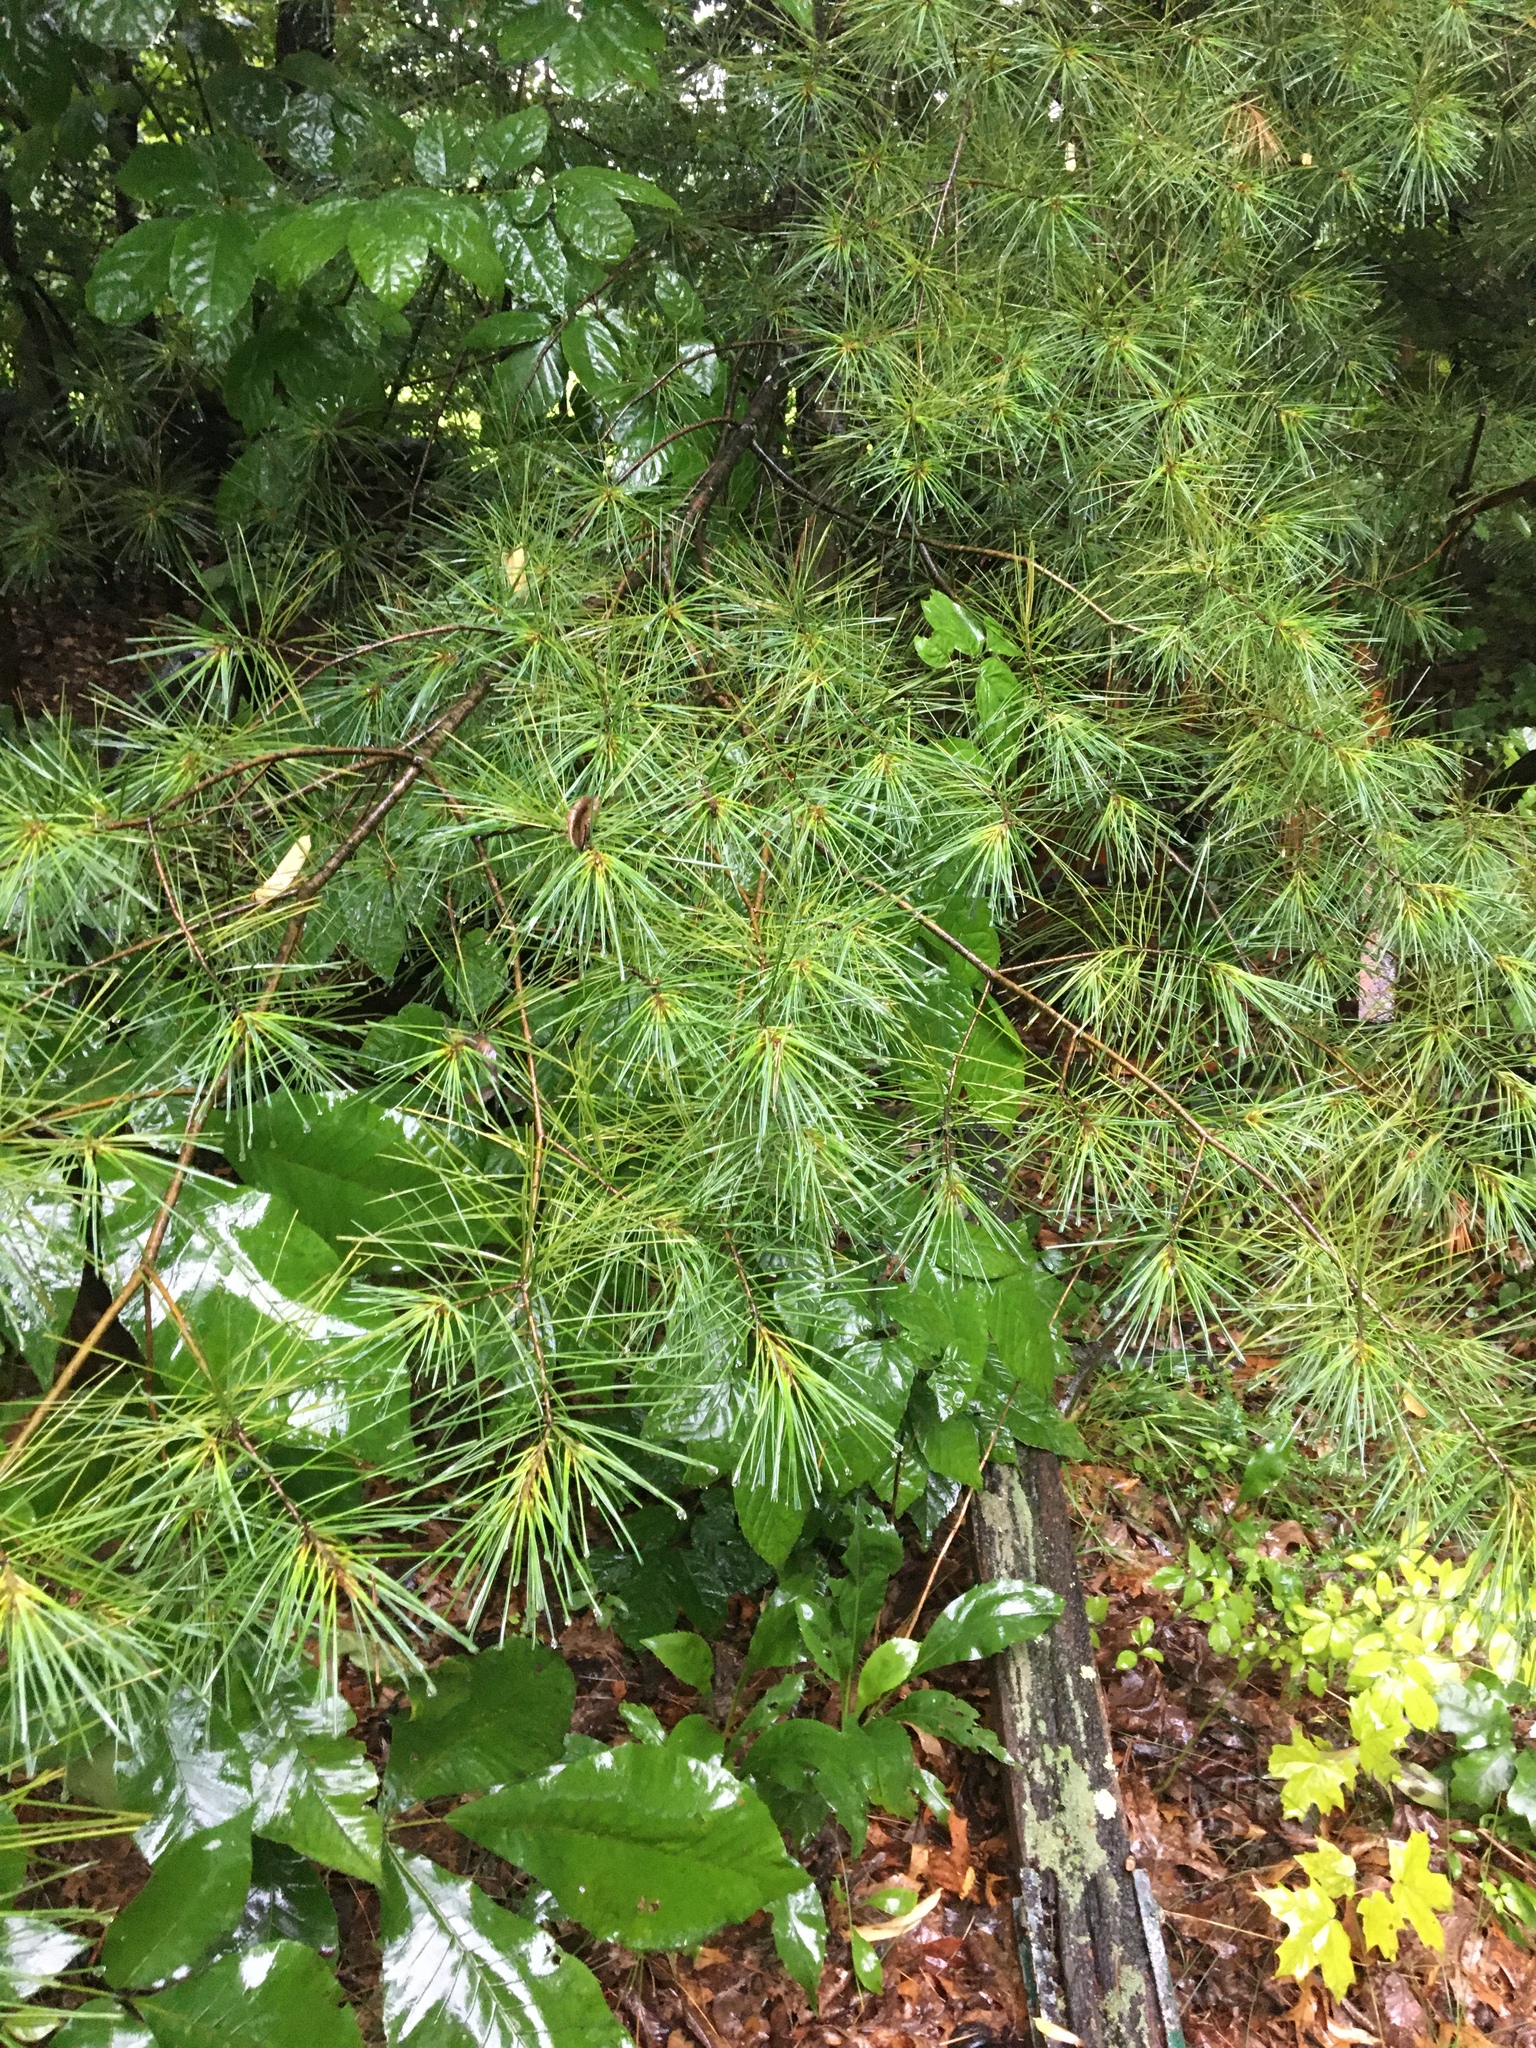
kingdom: Plantae
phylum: Tracheophyta
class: Pinopsida
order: Pinales
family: Pinaceae
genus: Pinus
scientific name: Pinus strobus
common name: Weymouth pine
